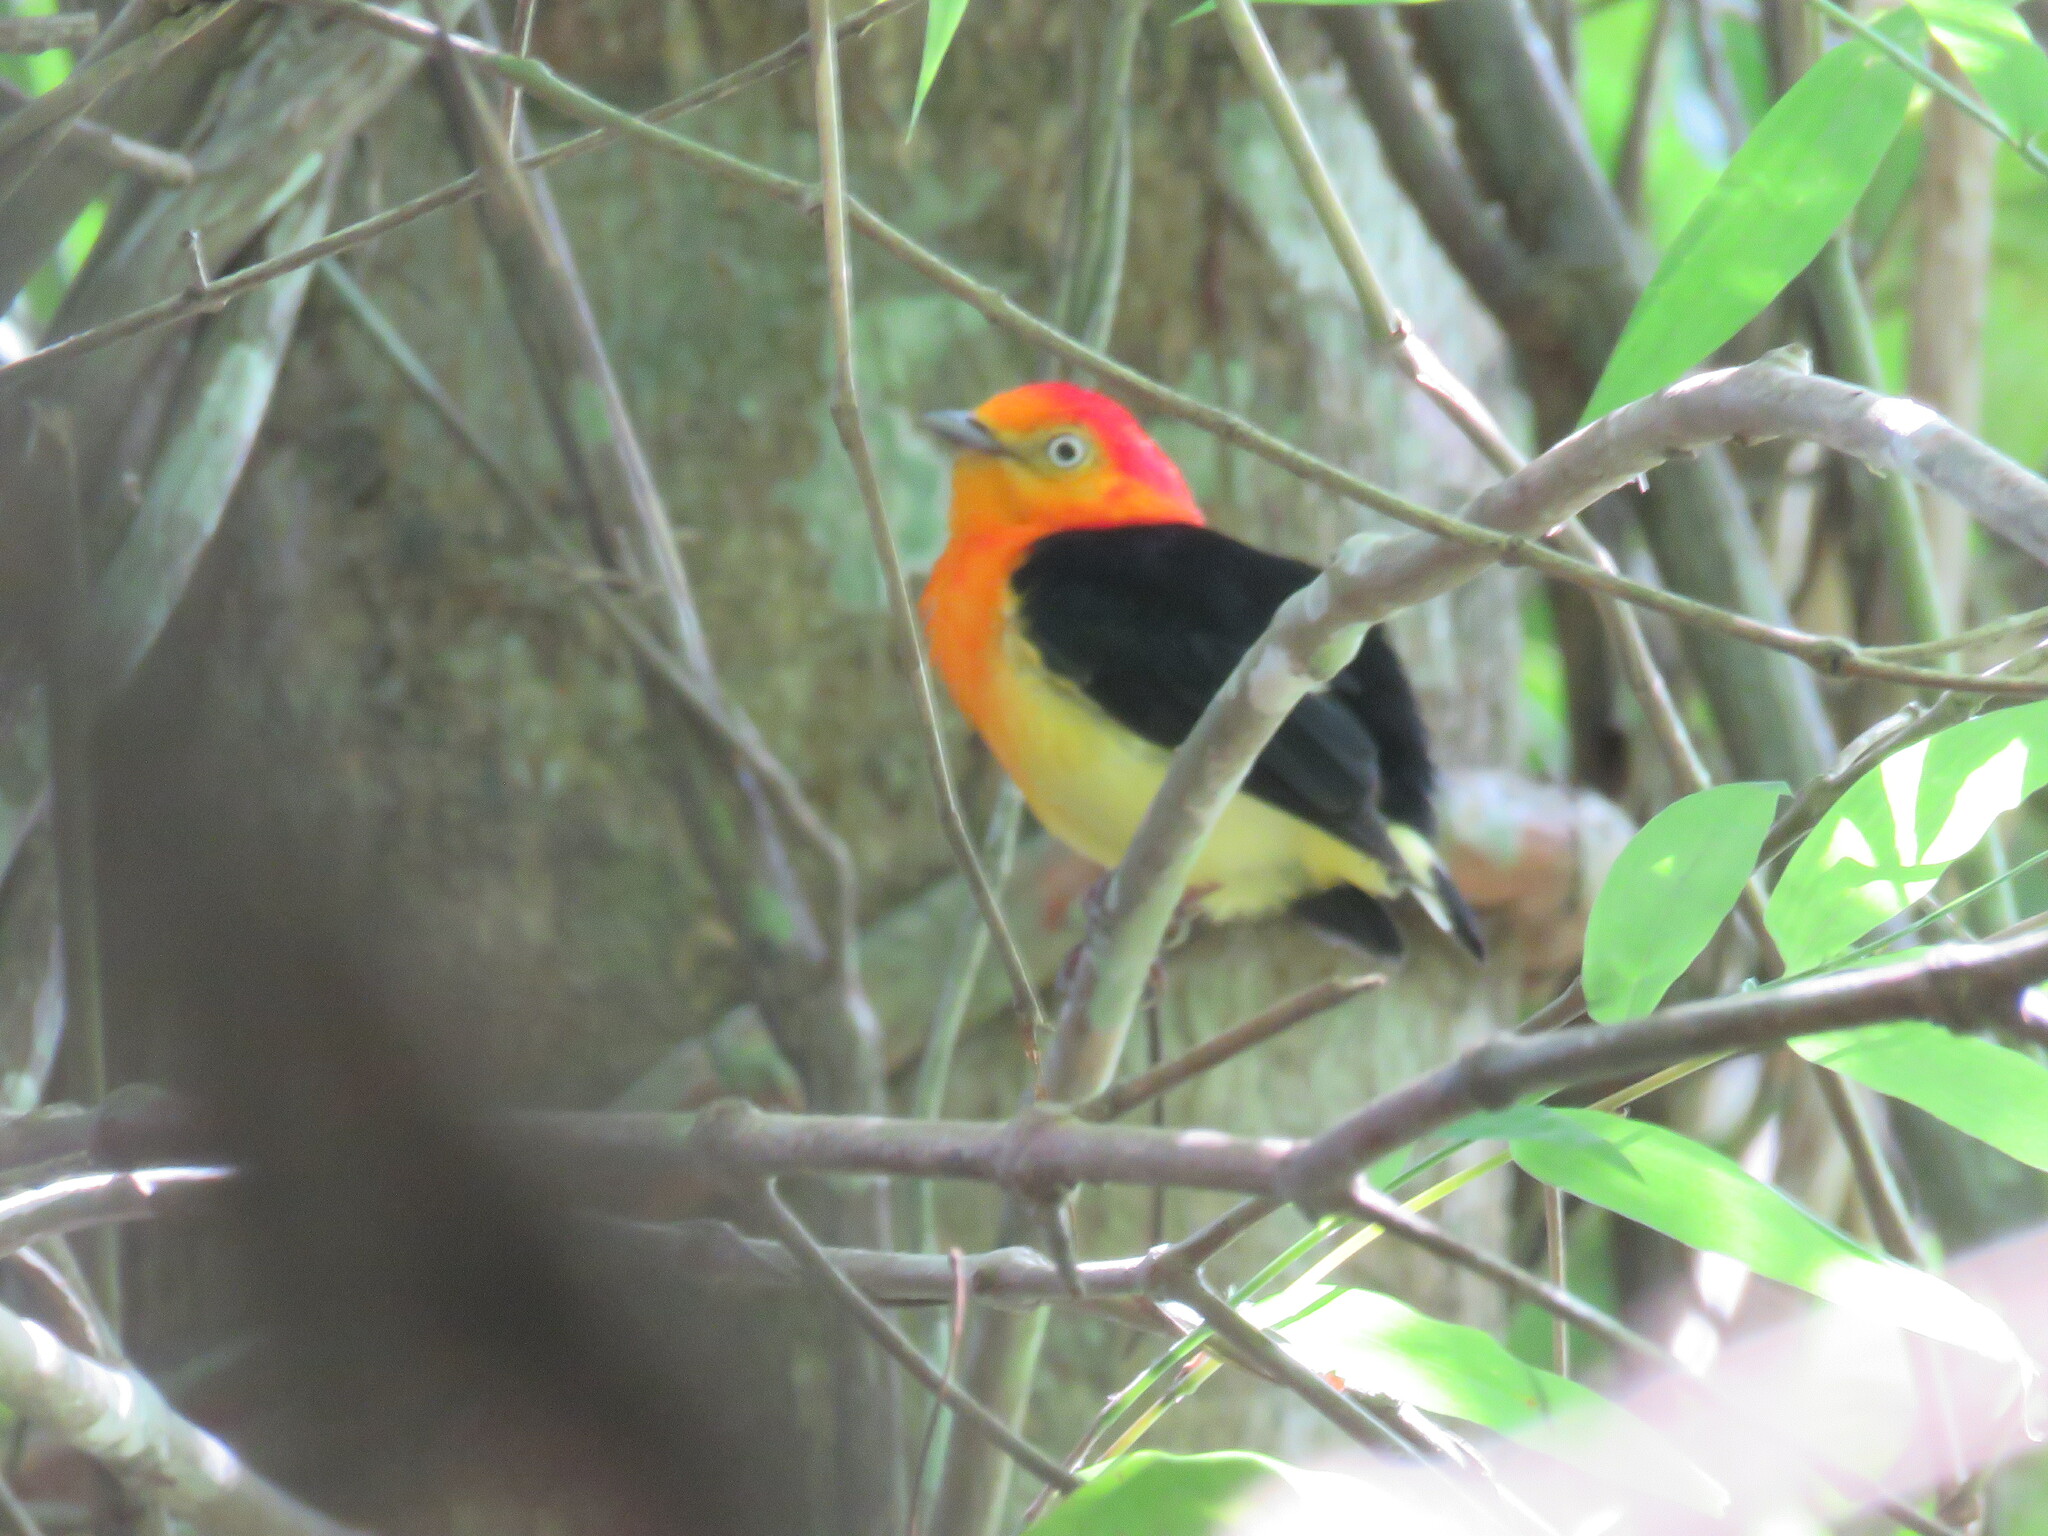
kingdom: Animalia
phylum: Chordata
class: Aves
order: Passeriformes
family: Pipridae
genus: Pipra
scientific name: Pipra fasciicauda
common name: Band-tailed manakin
